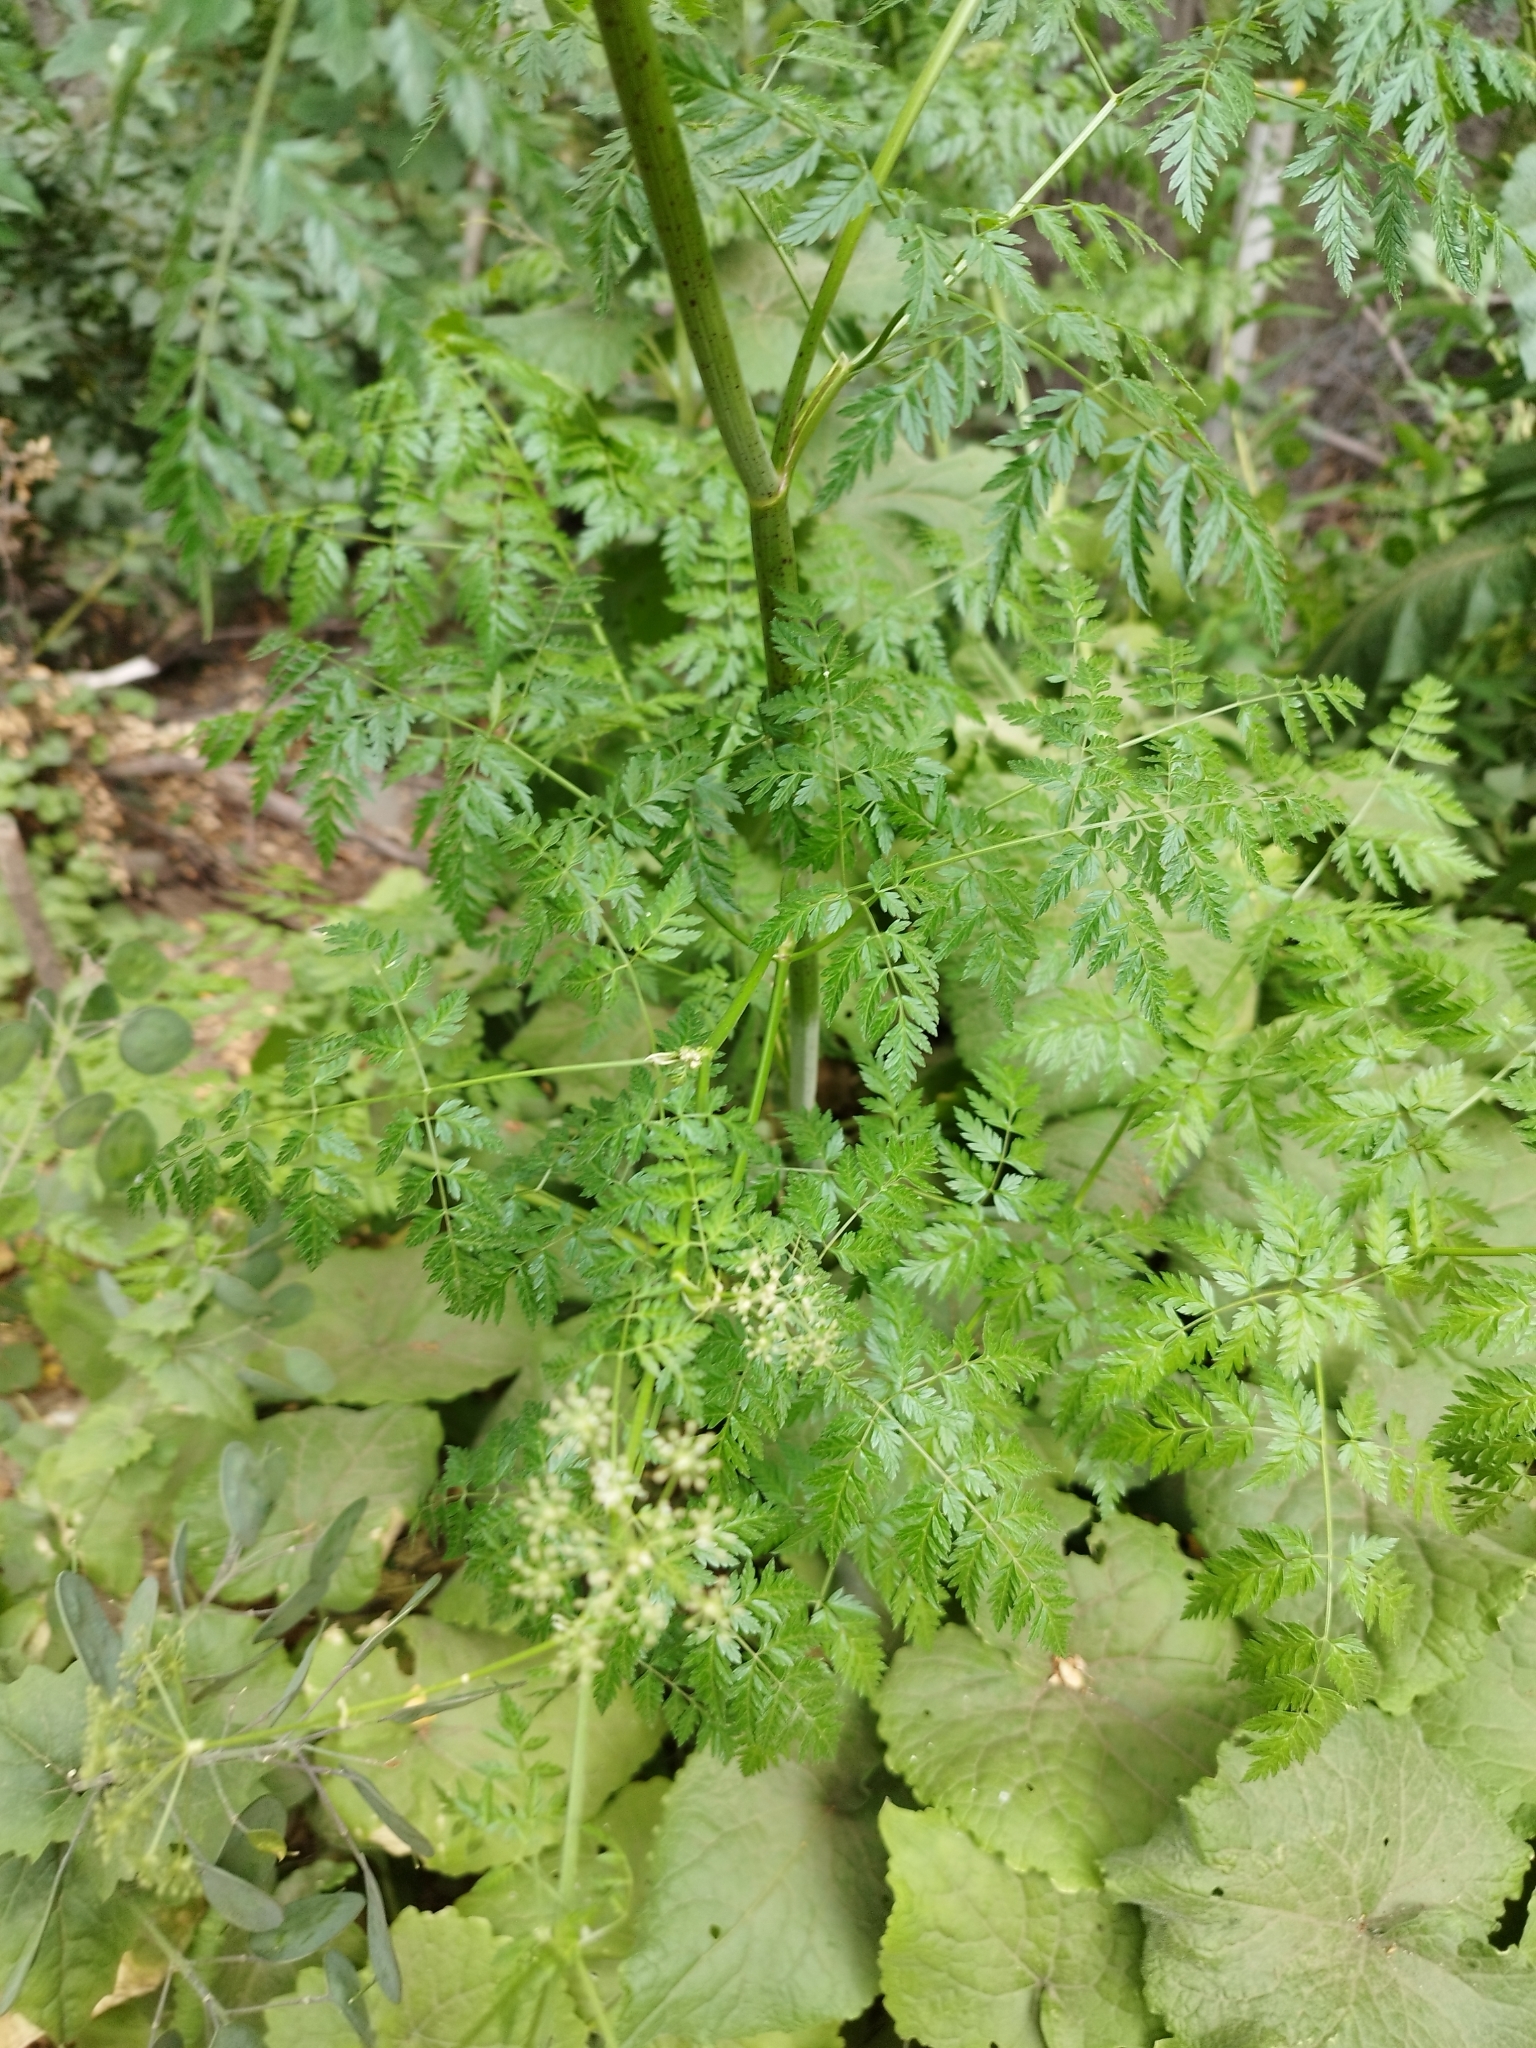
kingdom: Plantae
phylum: Tracheophyta
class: Magnoliopsida
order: Apiales
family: Apiaceae
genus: Conium
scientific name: Conium maculatum
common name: Hemlock
